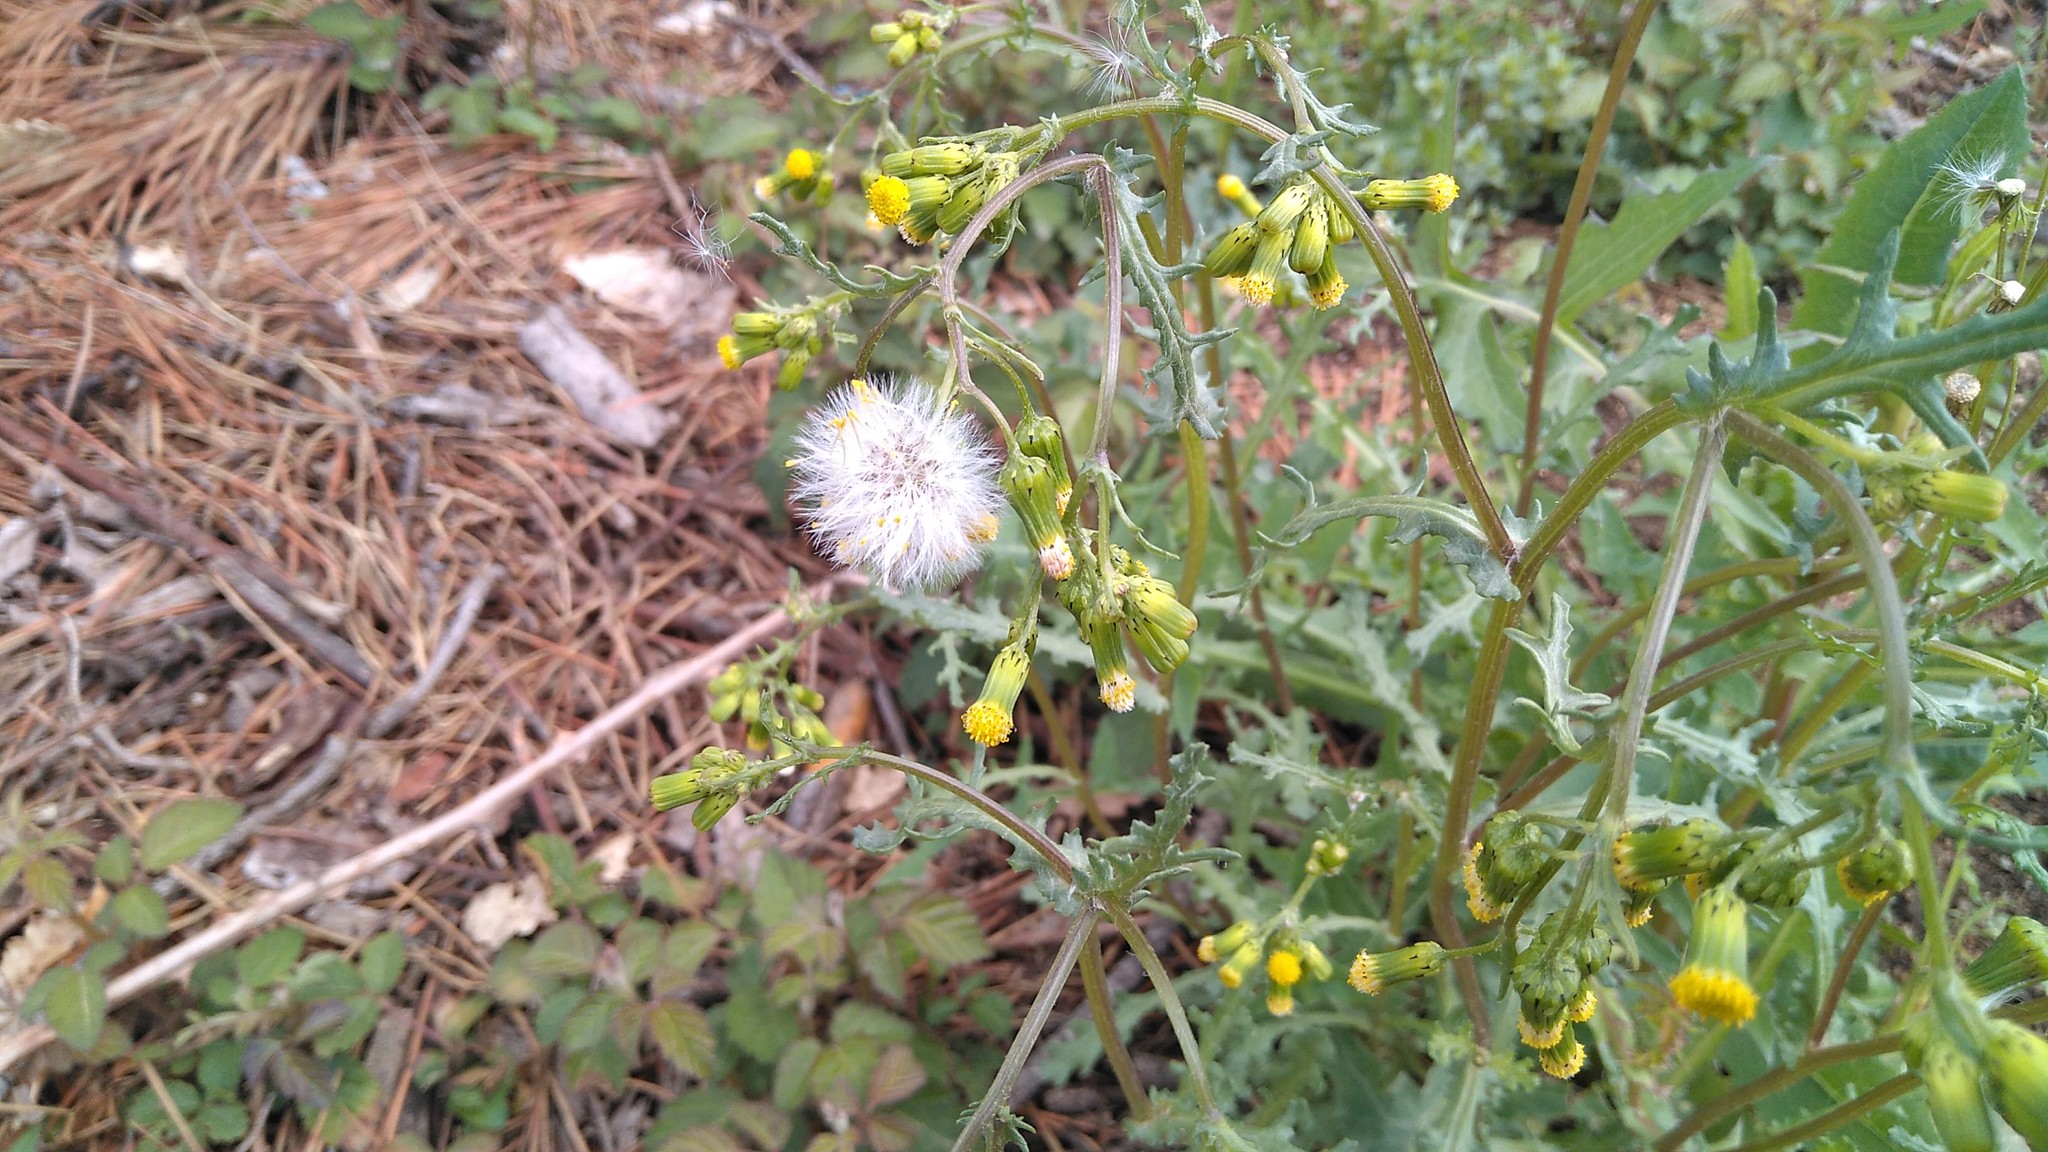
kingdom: Plantae
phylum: Tracheophyta
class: Magnoliopsida
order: Asterales
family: Asteraceae
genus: Senecio
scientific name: Senecio vulgaris
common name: Old-man-in-the-spring
